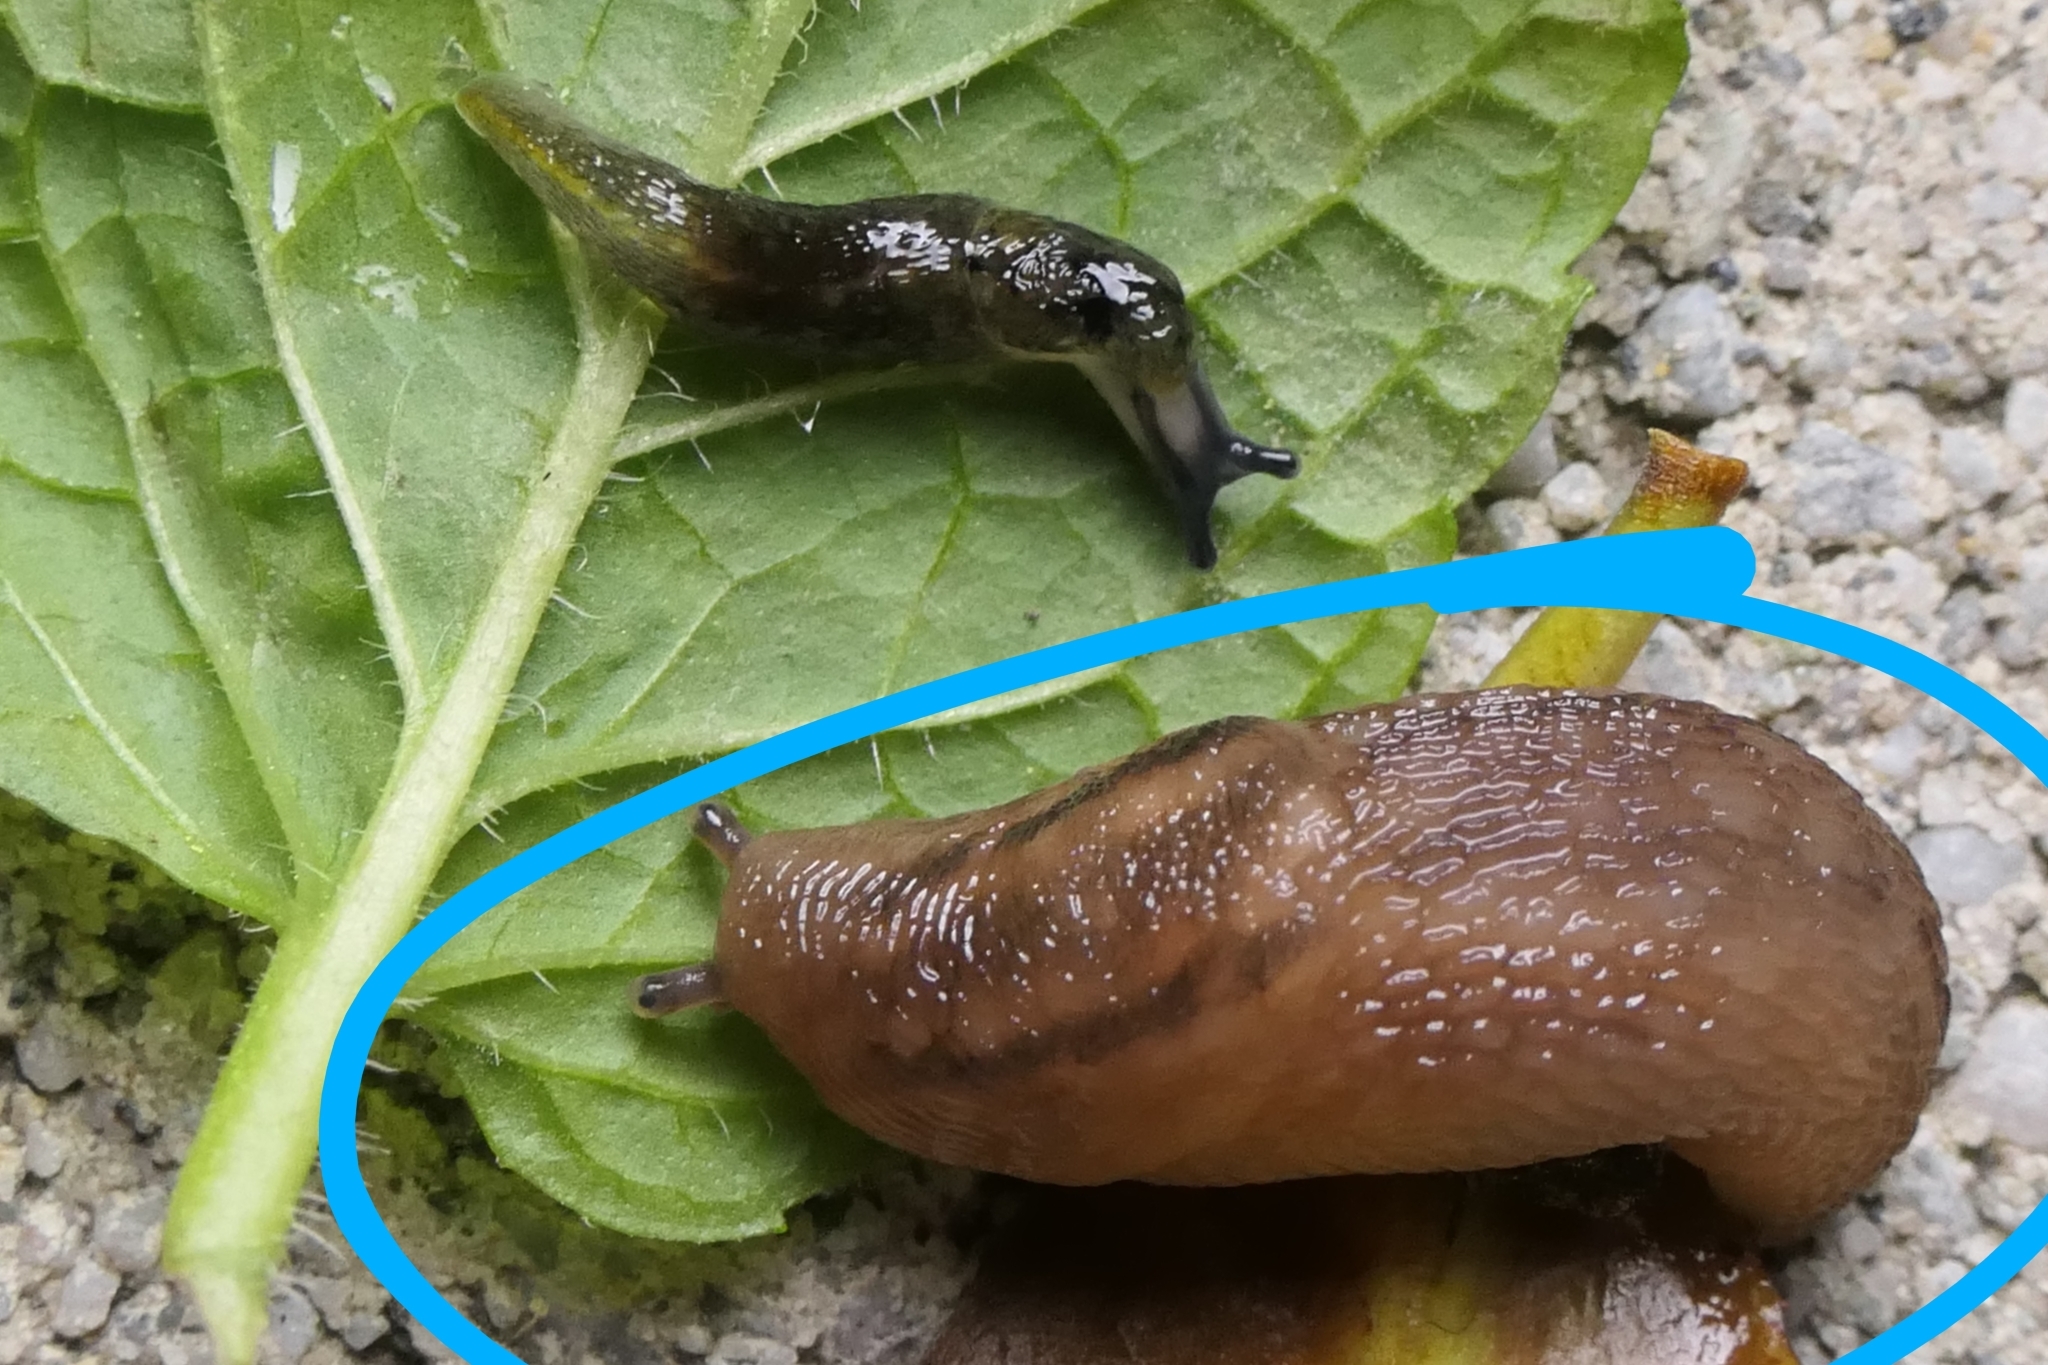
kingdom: Animalia
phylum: Mollusca
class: Gastropoda
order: Stylommatophora
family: Limacidae
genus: Ambigolimax
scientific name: Ambigolimax
